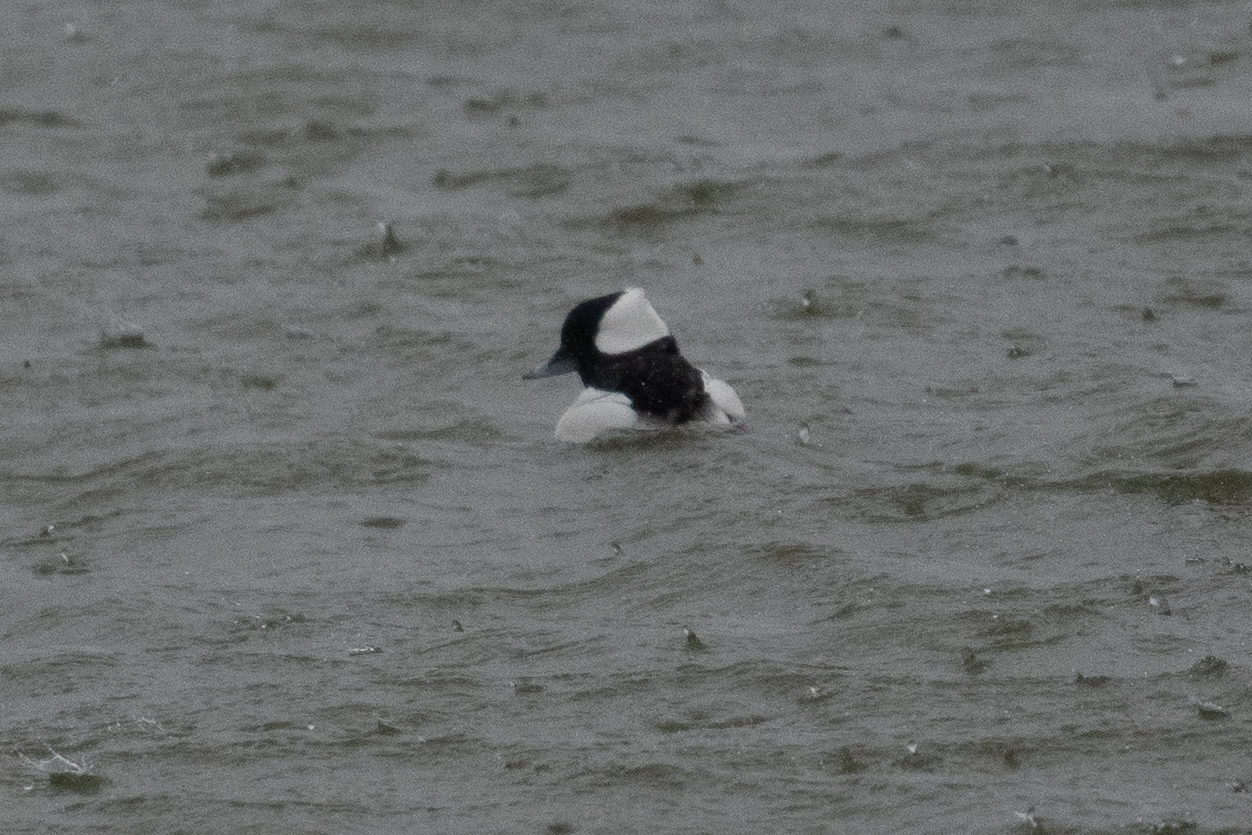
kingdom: Animalia
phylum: Chordata
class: Aves
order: Anseriformes
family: Anatidae
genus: Bucephala
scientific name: Bucephala albeola
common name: Bufflehead
